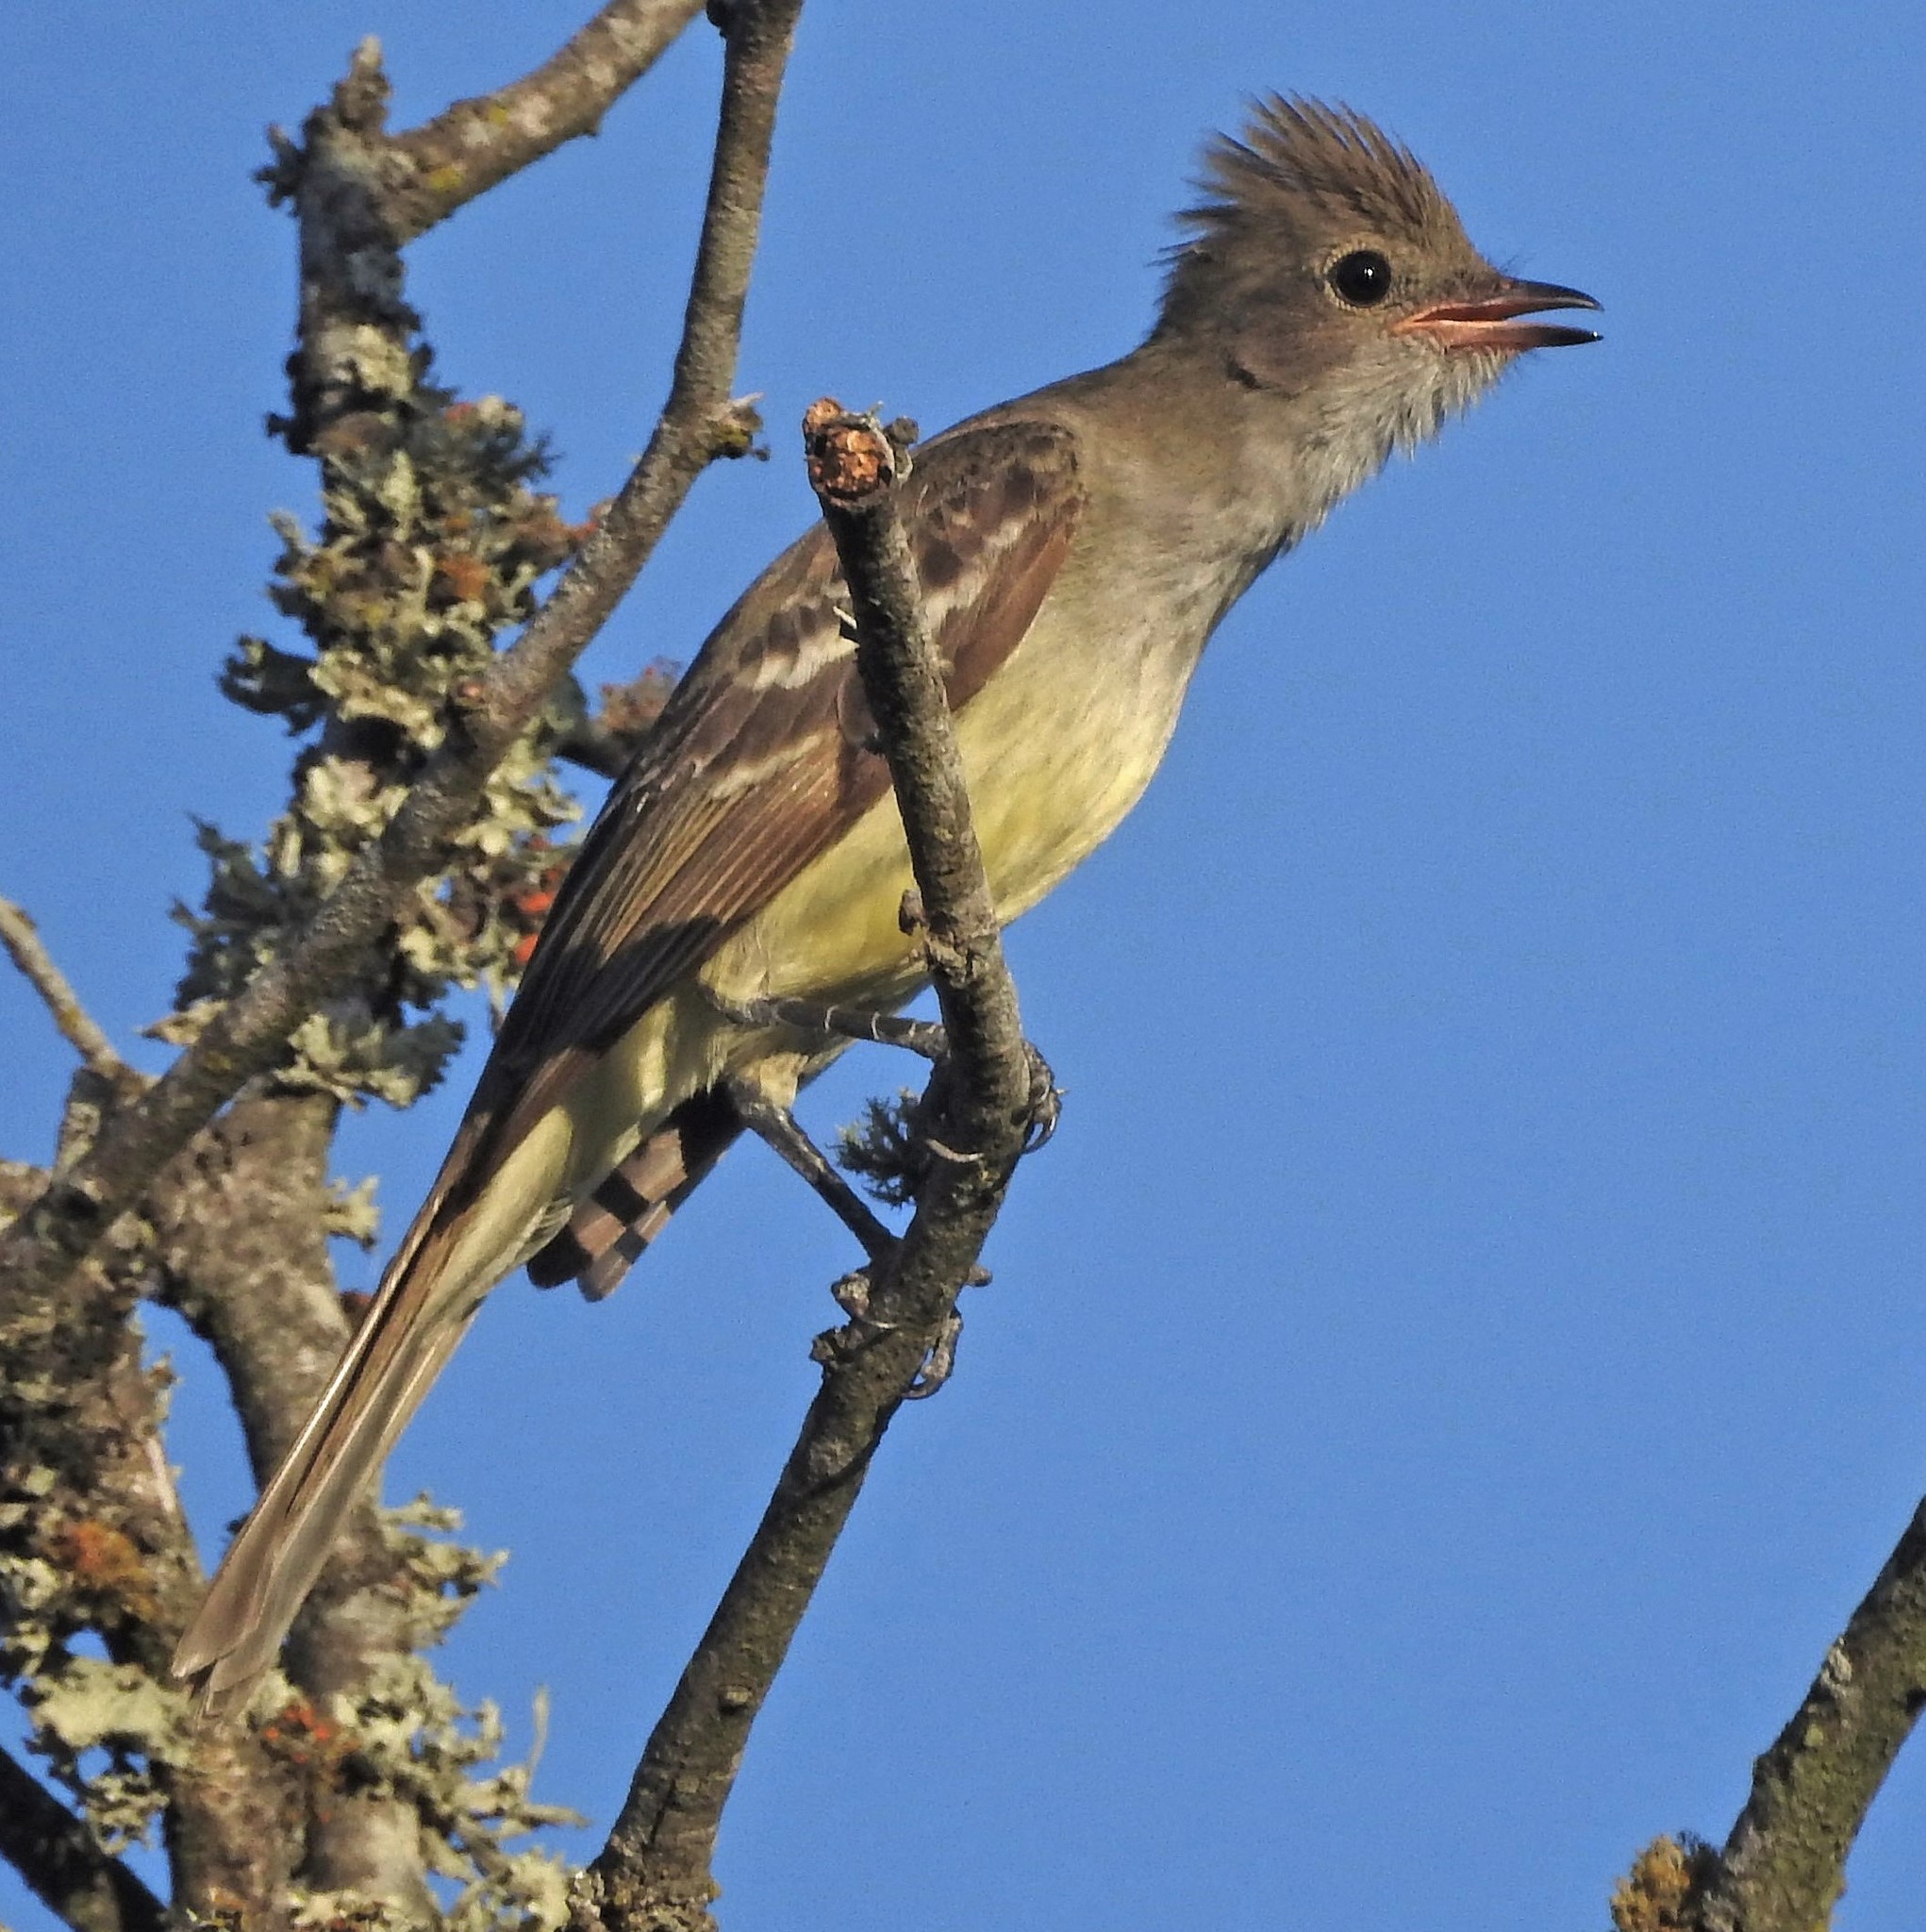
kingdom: Animalia
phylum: Chordata
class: Aves
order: Passeriformes
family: Tyrannidae
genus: Elaenia
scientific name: Elaenia spectabilis
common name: Large elaenia
